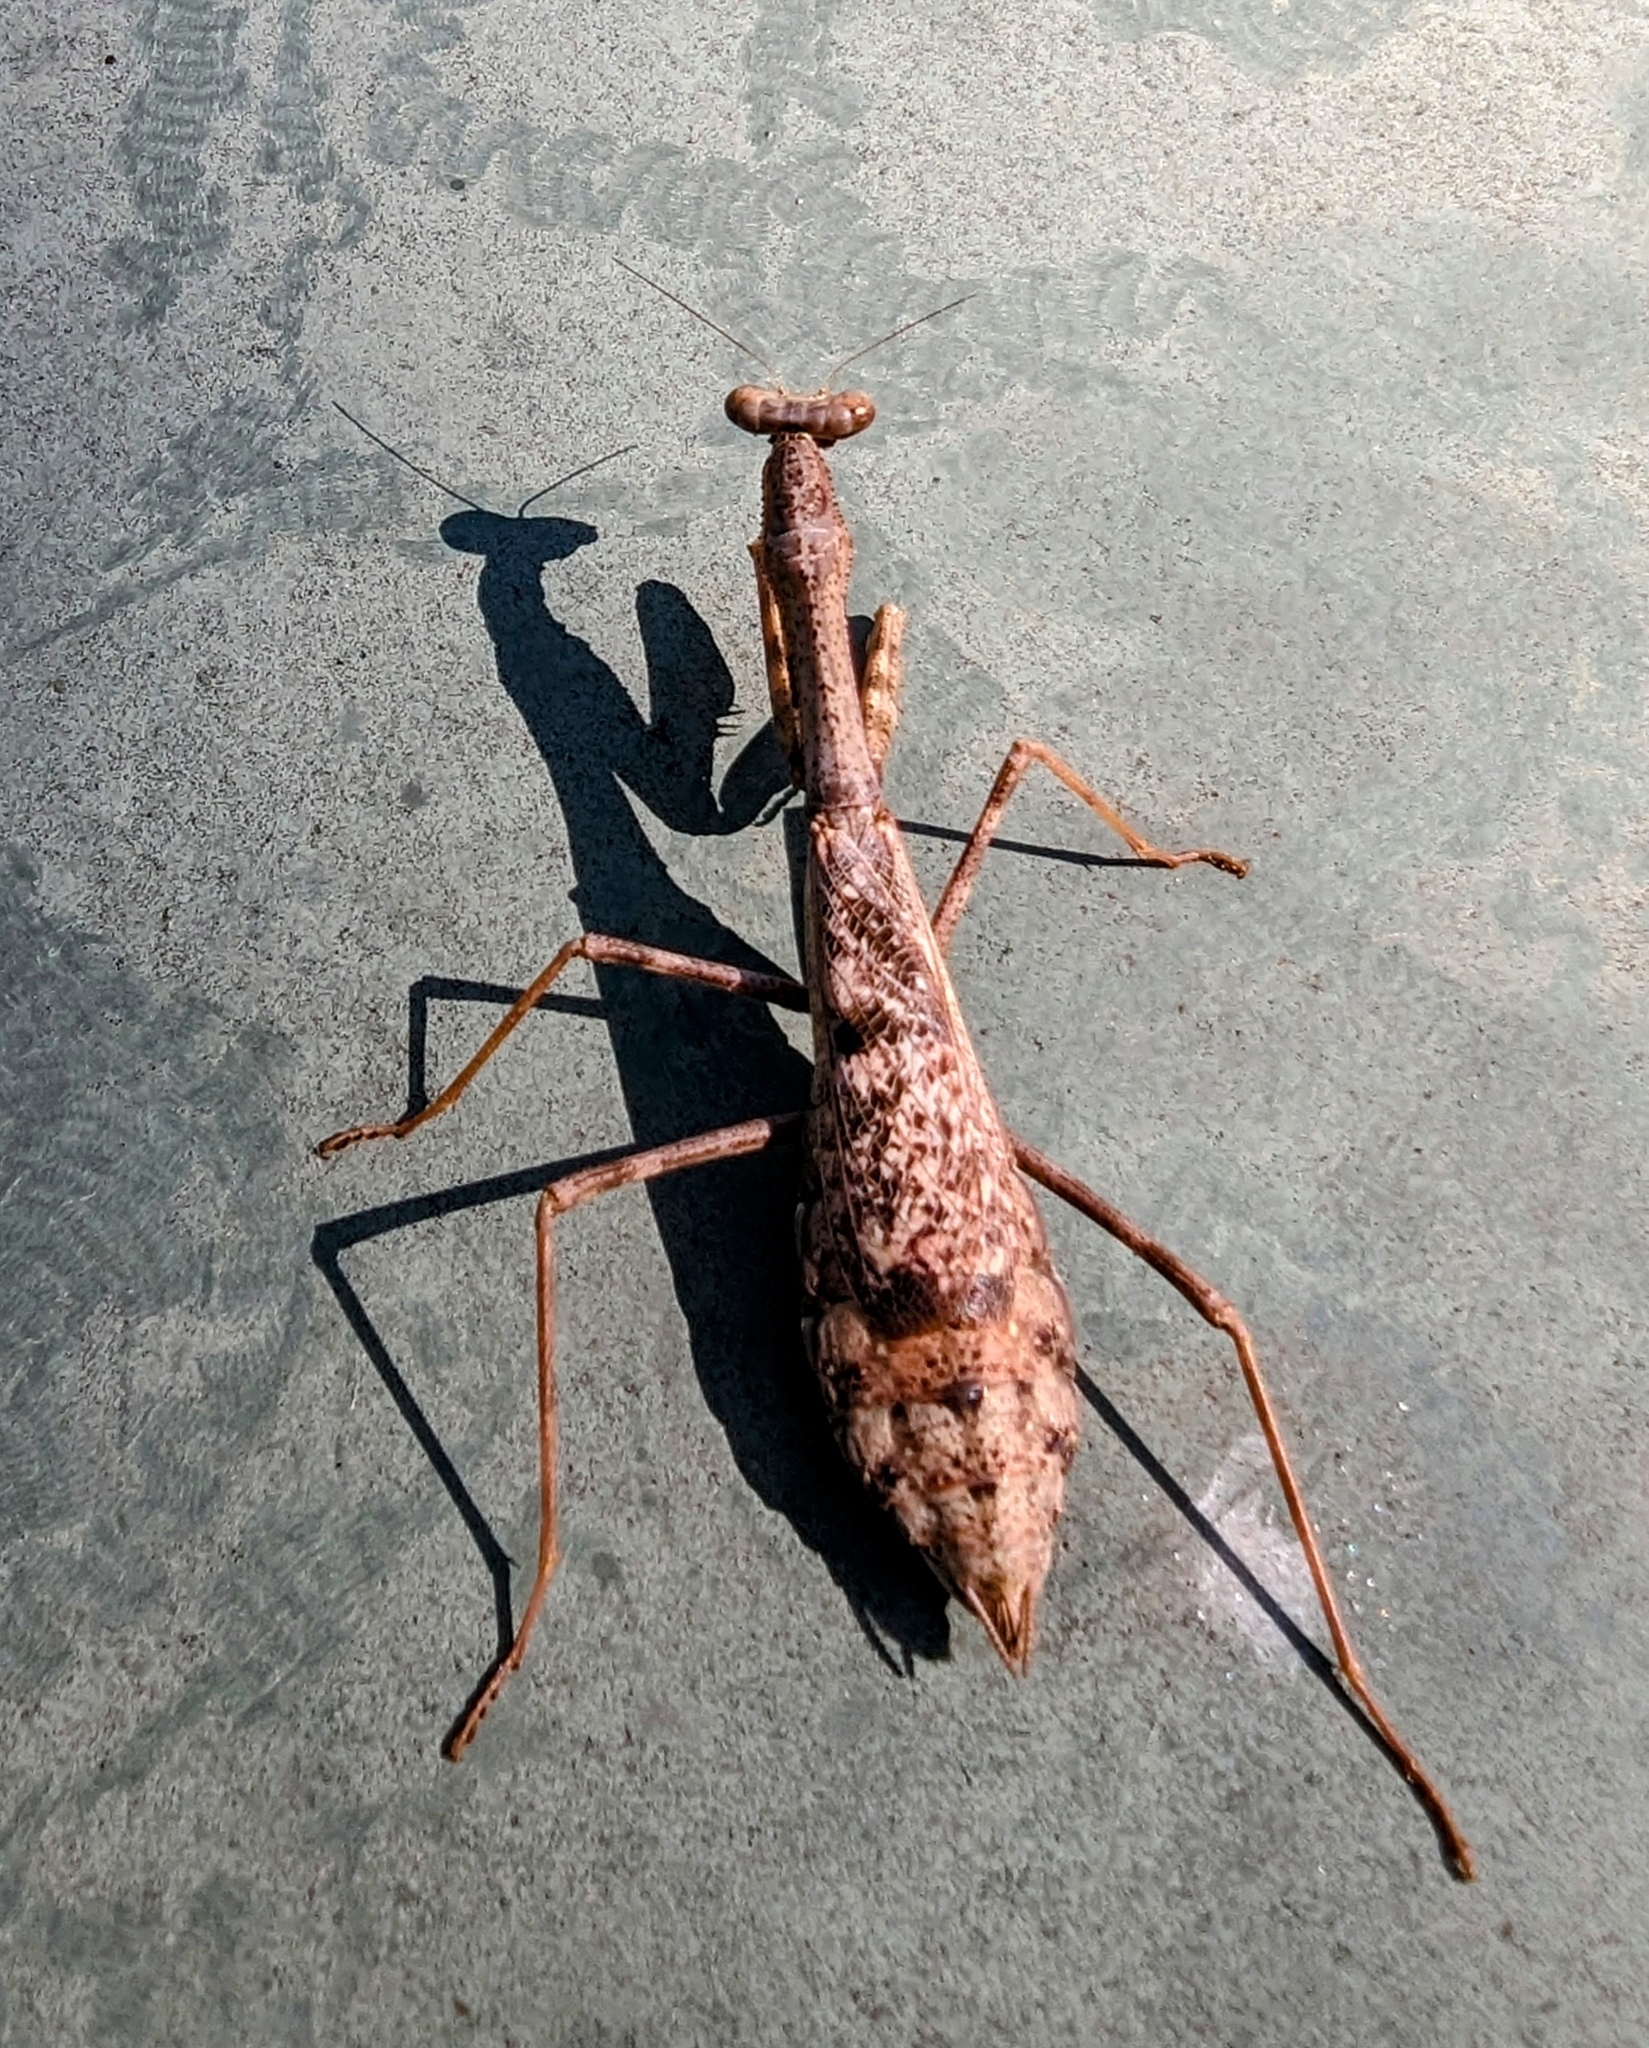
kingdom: Animalia
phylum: Arthropoda
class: Insecta
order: Mantodea
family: Mantidae
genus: Stagmomantis
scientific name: Stagmomantis carolina
